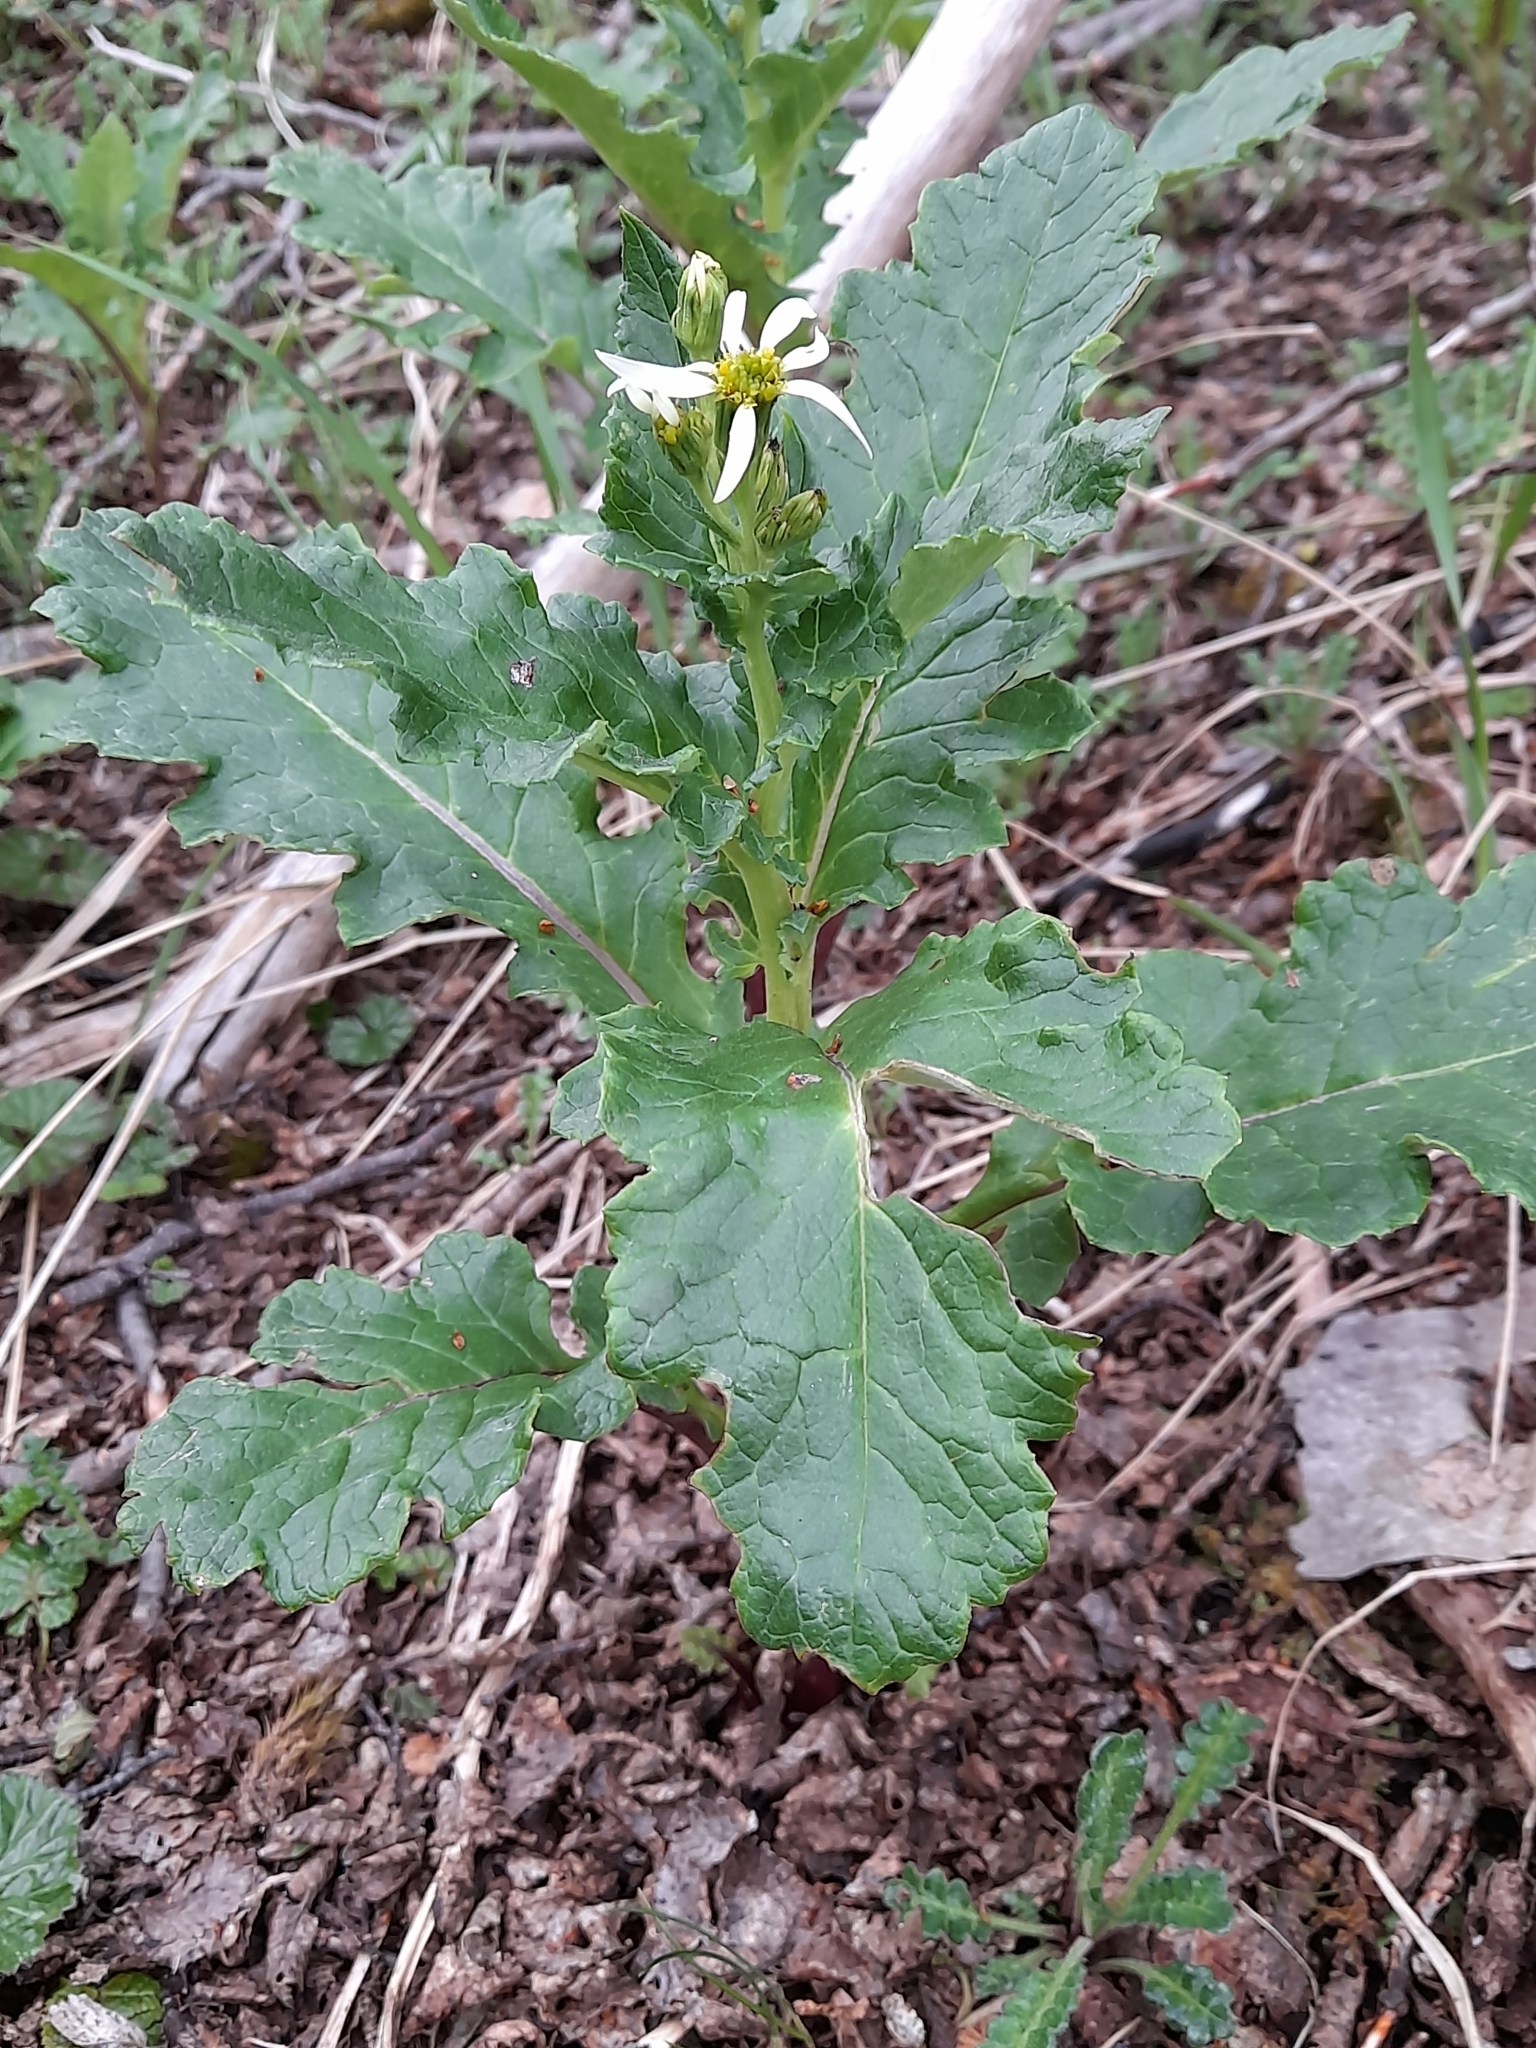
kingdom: Plantae
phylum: Tracheophyta
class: Magnoliopsida
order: Asterales
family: Asteraceae
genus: Iocenes
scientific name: Iocenes virens
